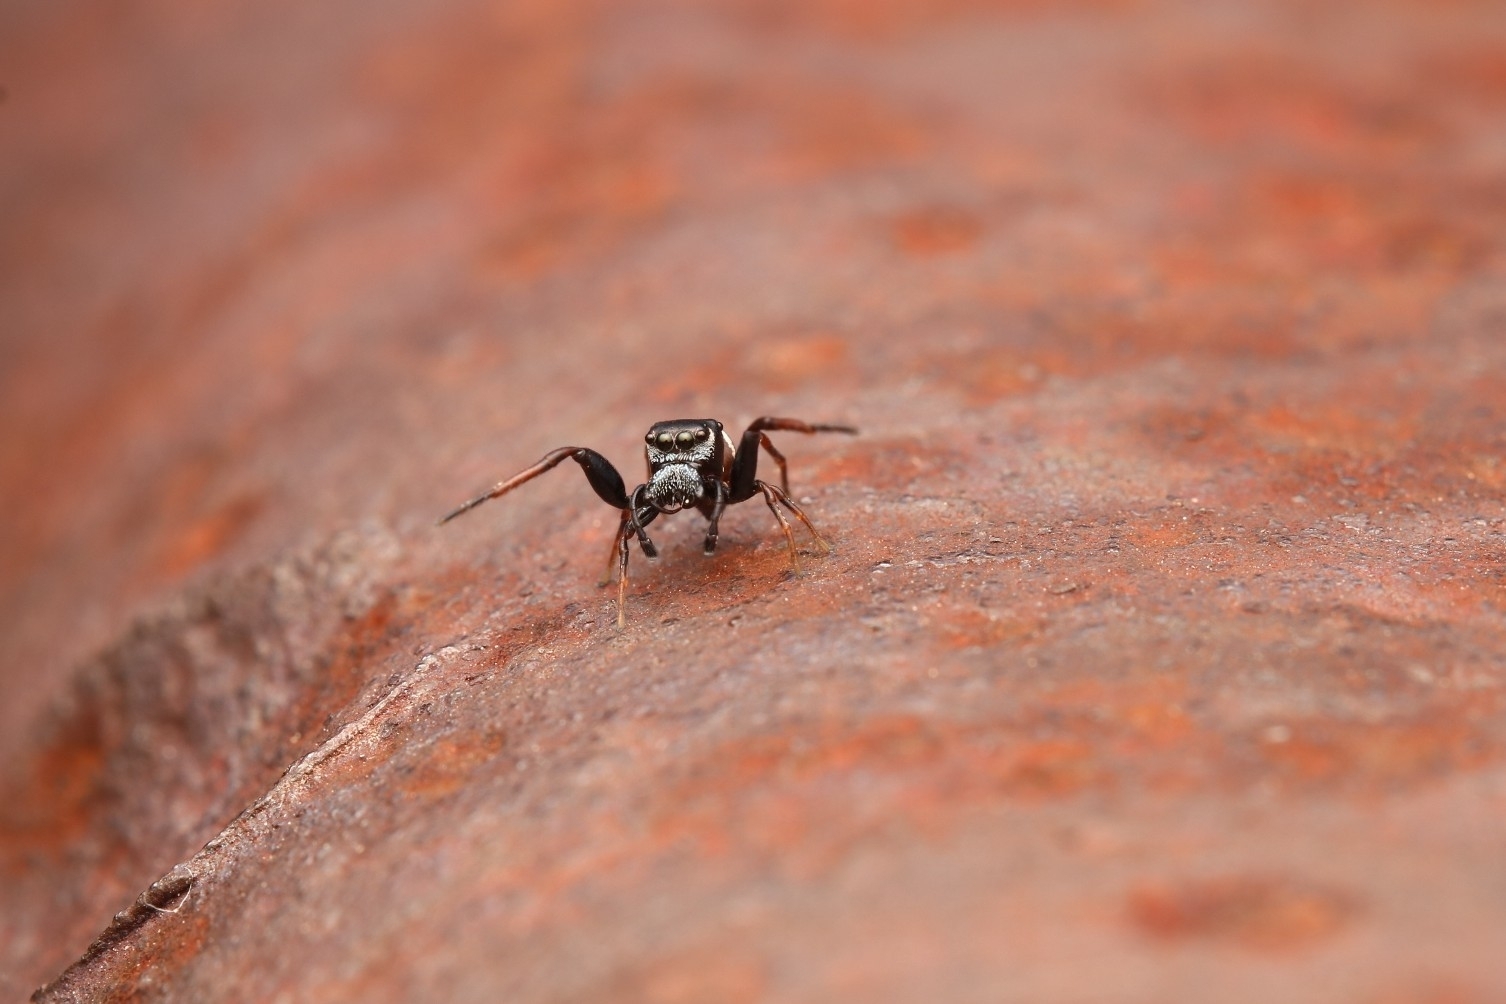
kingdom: Animalia
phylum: Arthropoda
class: Arachnida
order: Araneae
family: Salticidae
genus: Zygoballus
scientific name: Zygoballus sexpunctatus
